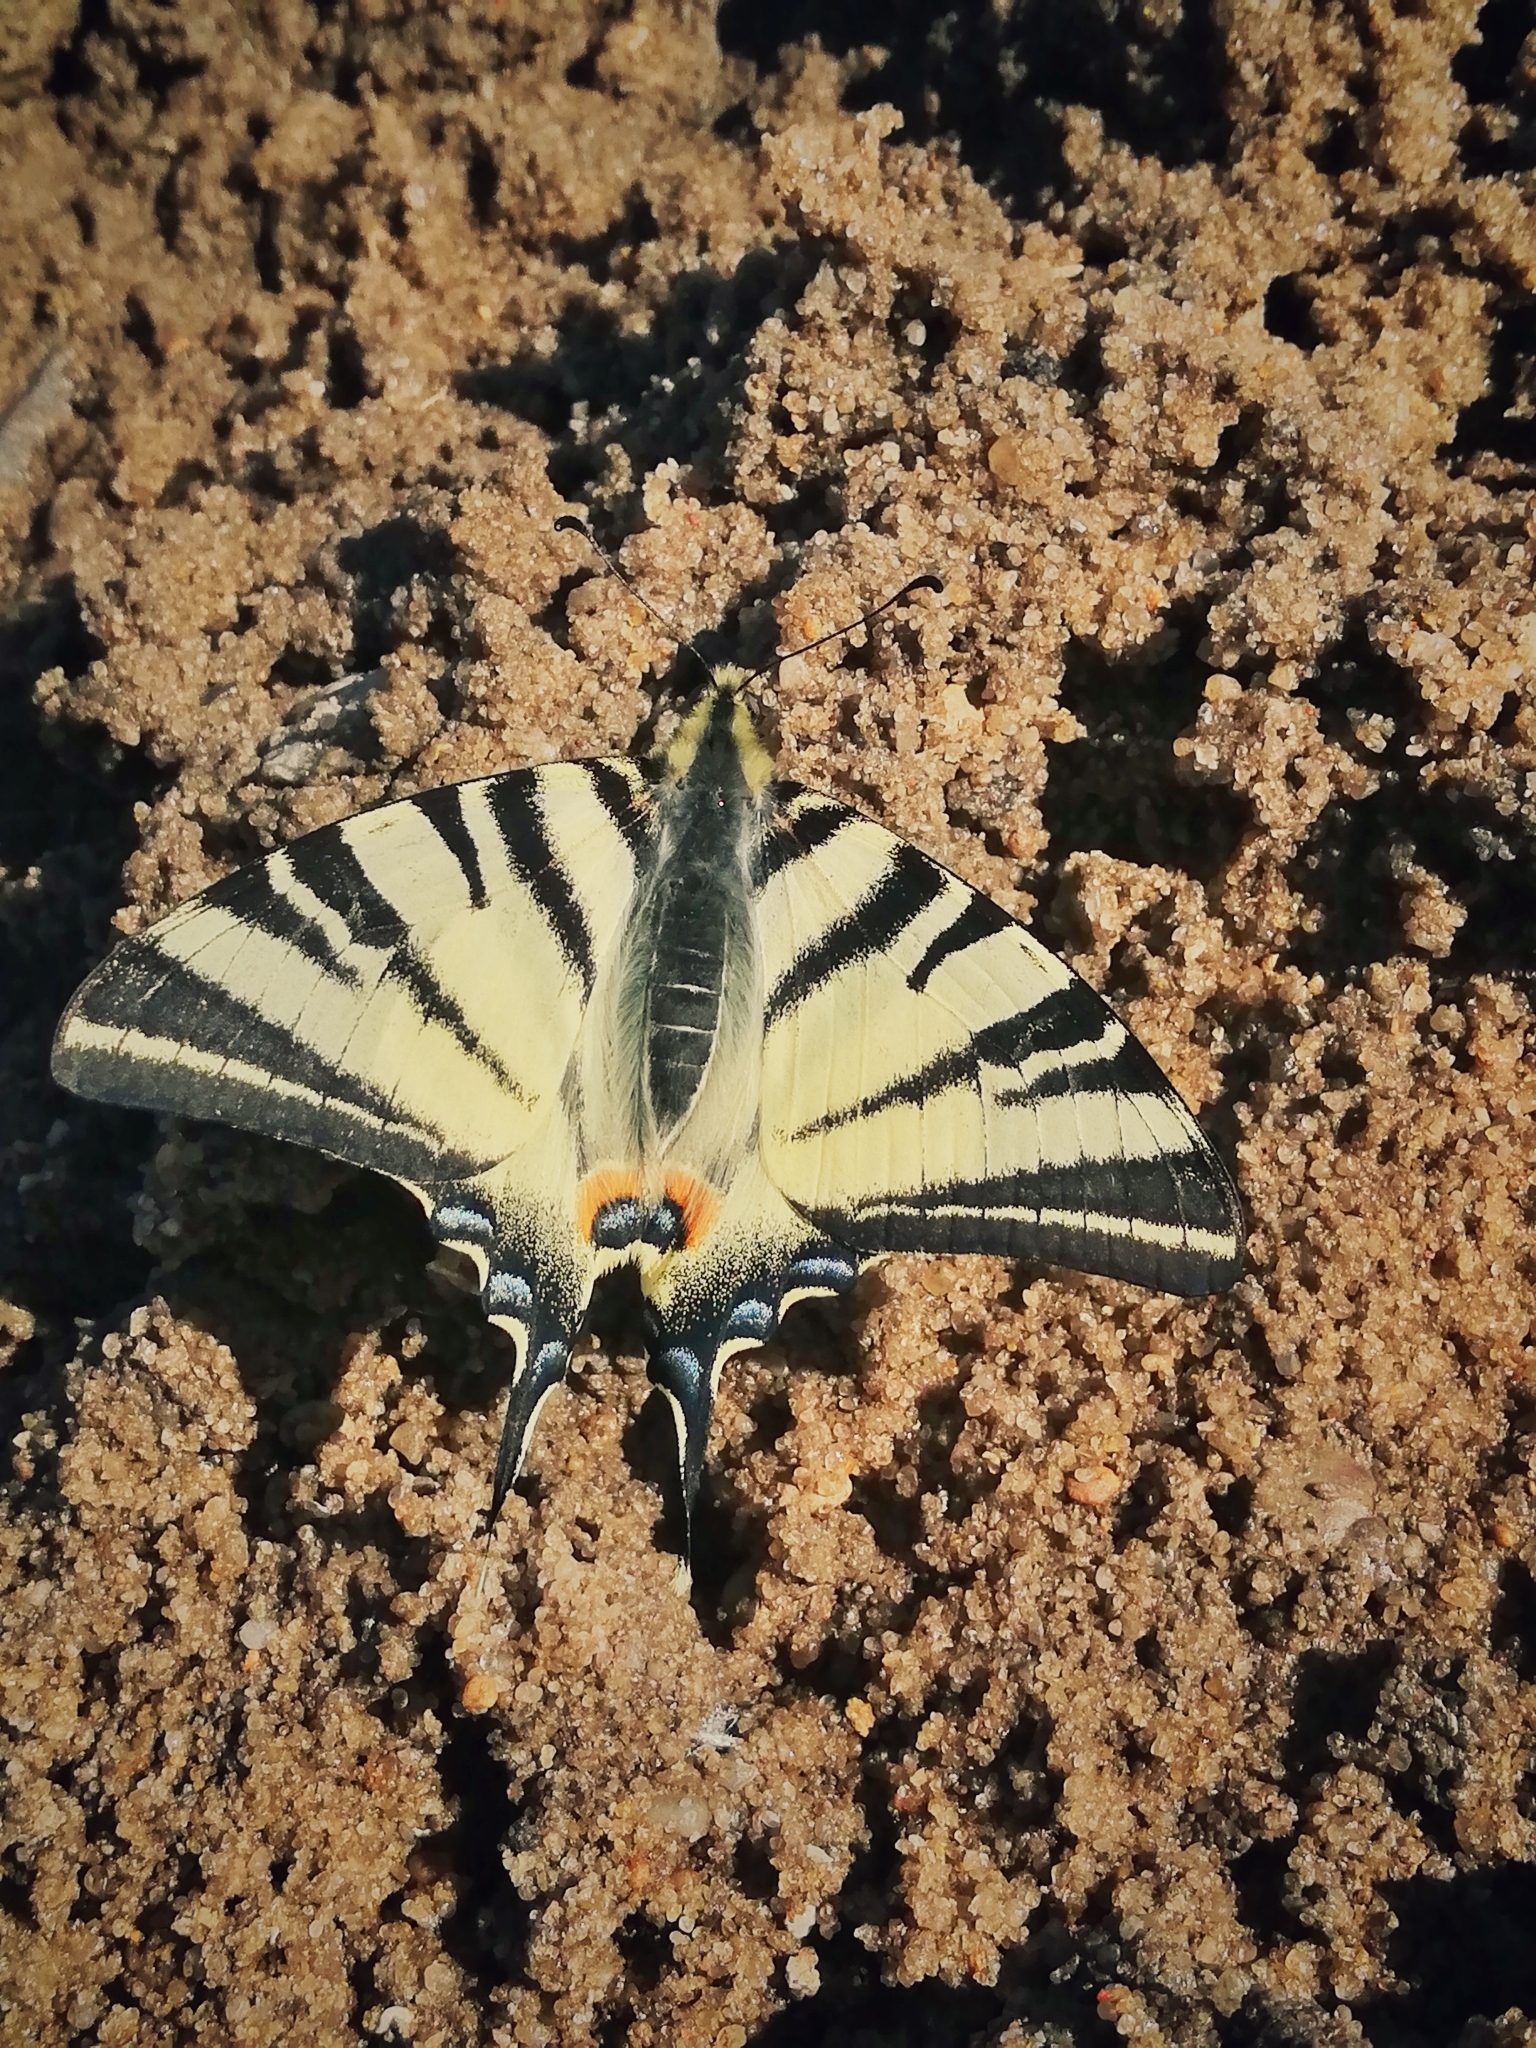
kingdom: Animalia
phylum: Arthropoda
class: Insecta
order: Lepidoptera
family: Papilionidae
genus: Iphiclides
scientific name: Iphiclides podalirius
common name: Scarce swallowtail
